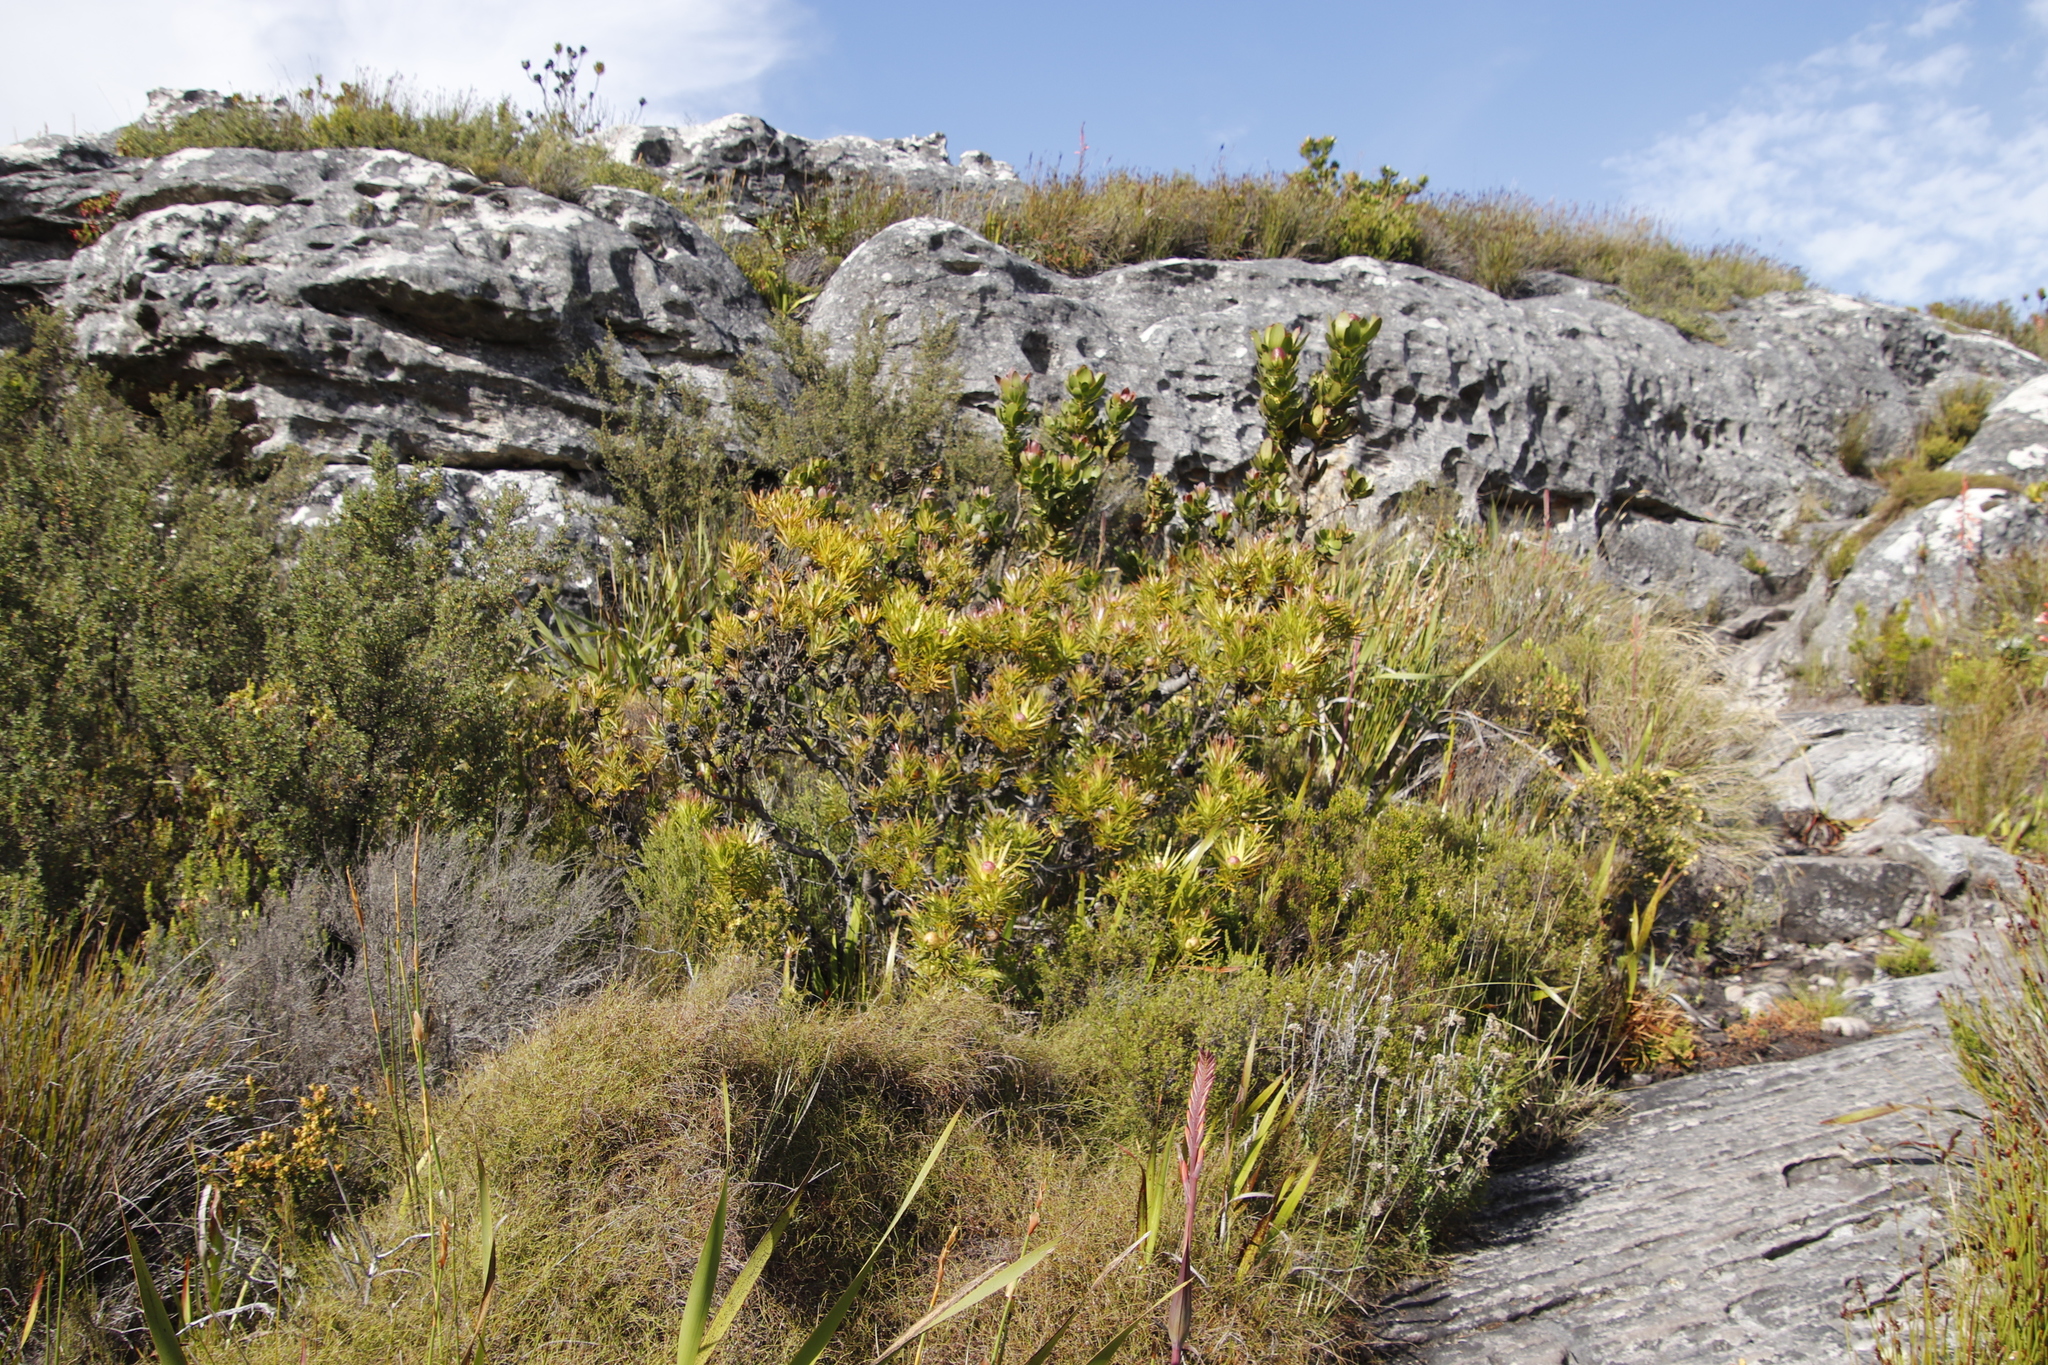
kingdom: Plantae
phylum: Tracheophyta
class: Magnoliopsida
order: Proteales
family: Proteaceae
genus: Leucadendron
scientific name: Leucadendron xanthoconus
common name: Sickle-leaf conebush
